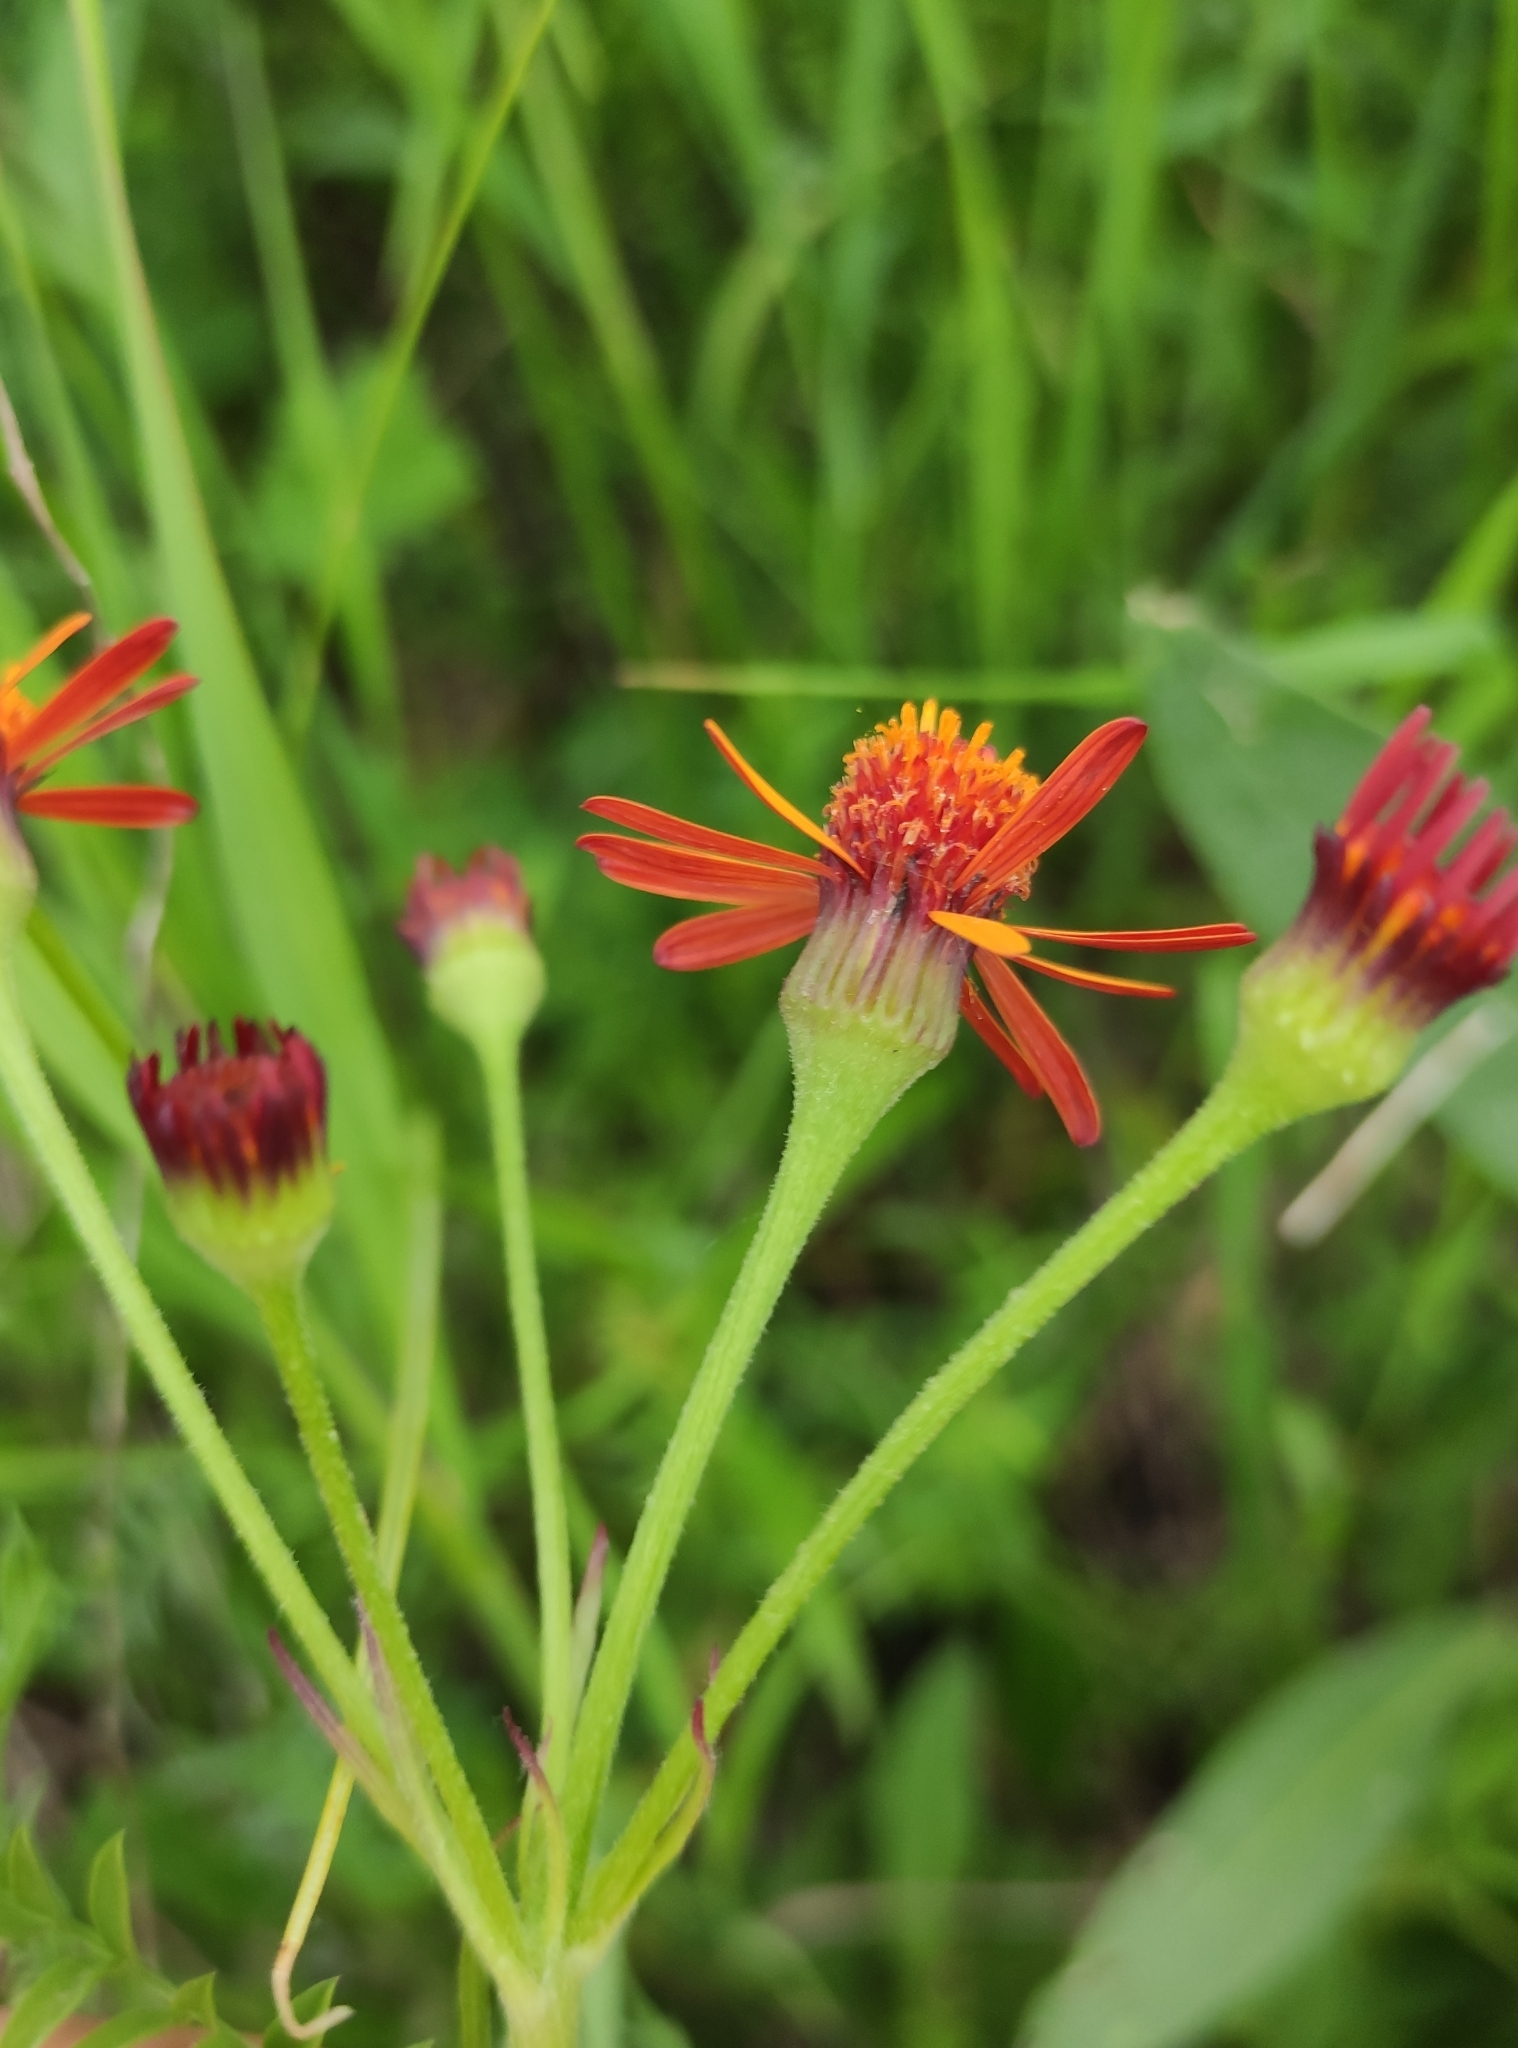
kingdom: Plantae
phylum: Tracheophyta
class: Magnoliopsida
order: Asterales
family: Asteraceae
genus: Tephroseris
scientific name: Tephroseris porphyrantha
